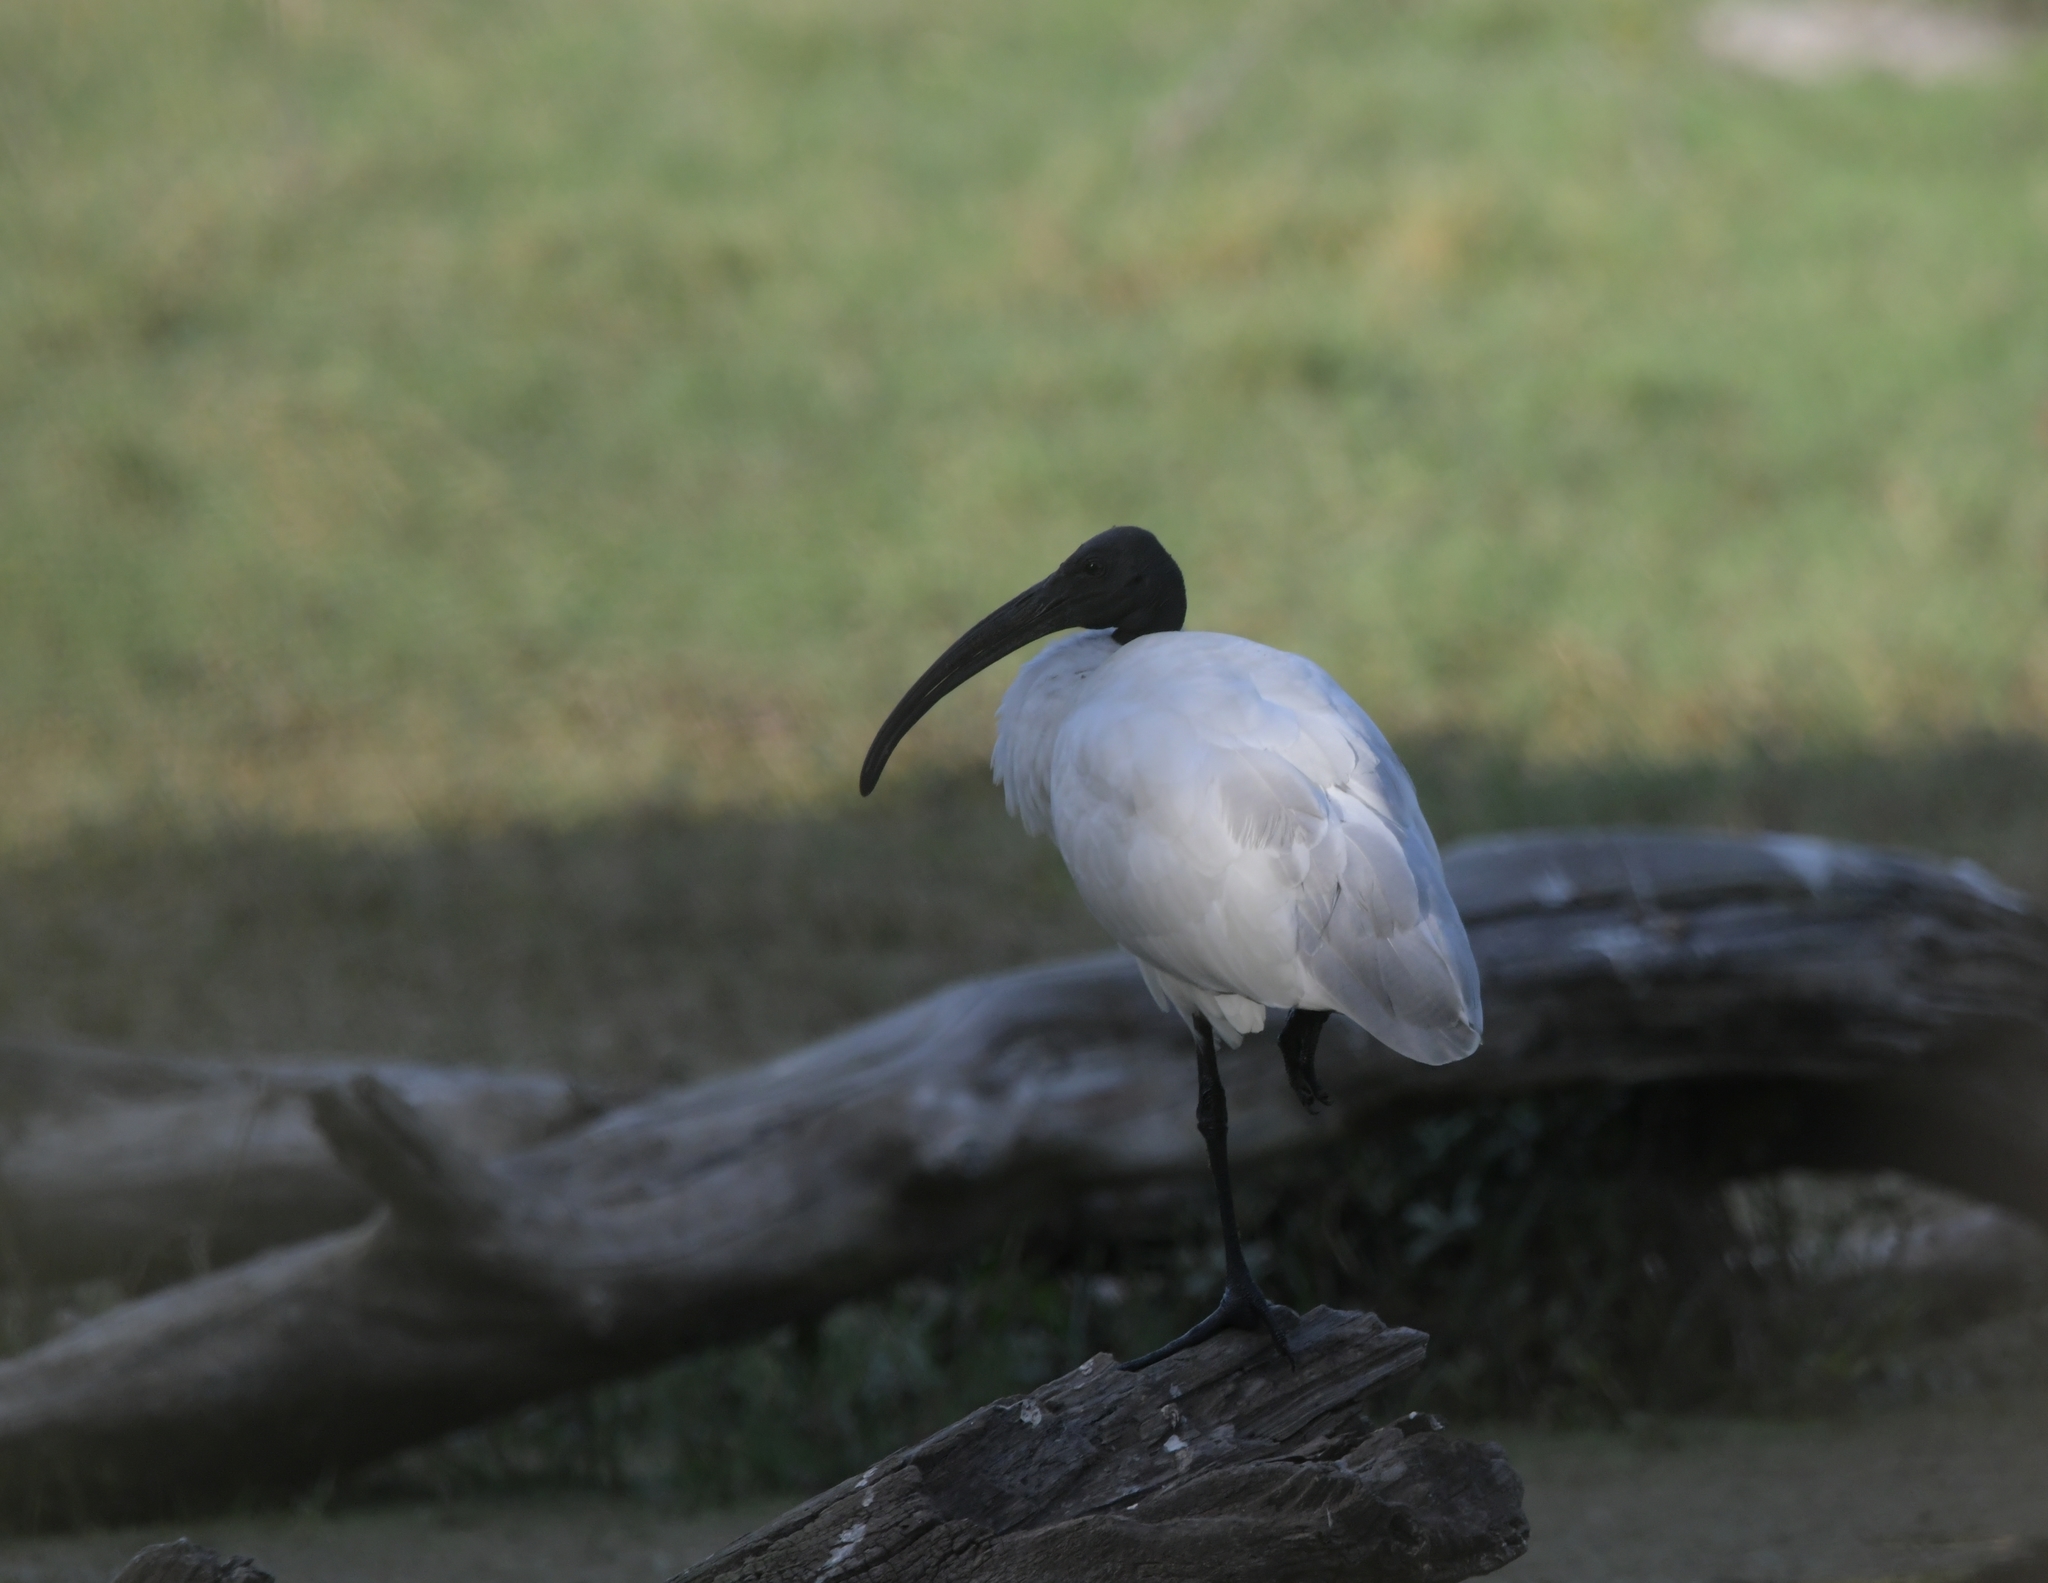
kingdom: Animalia
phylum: Chordata
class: Aves
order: Pelecaniformes
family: Threskiornithidae
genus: Threskiornis
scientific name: Threskiornis melanocephalus
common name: Black-headed ibis
